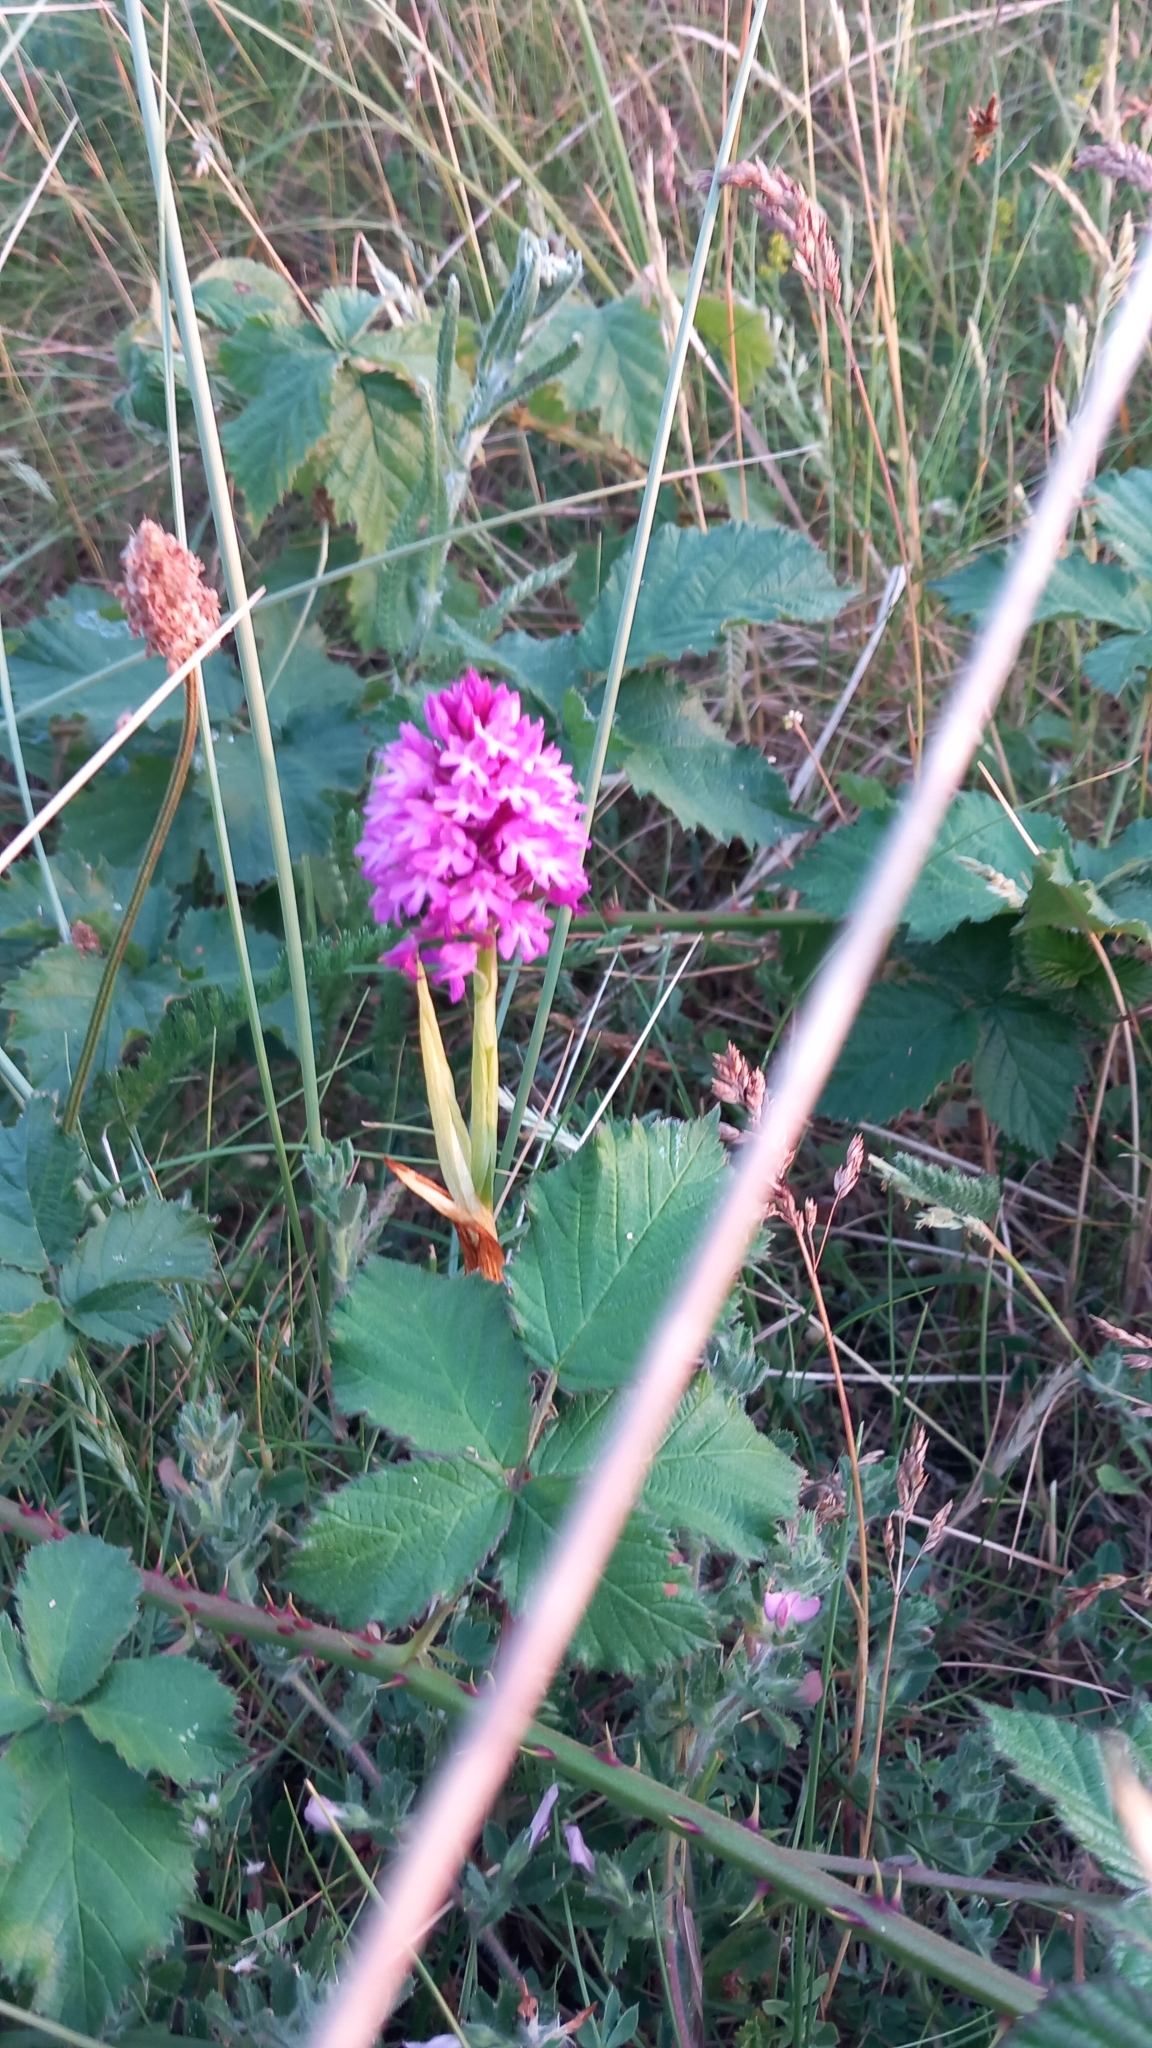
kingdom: Plantae
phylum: Tracheophyta
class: Liliopsida
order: Asparagales
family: Orchidaceae
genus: Anacamptis
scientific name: Anacamptis pyramidalis
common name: Pyramidal orchid
